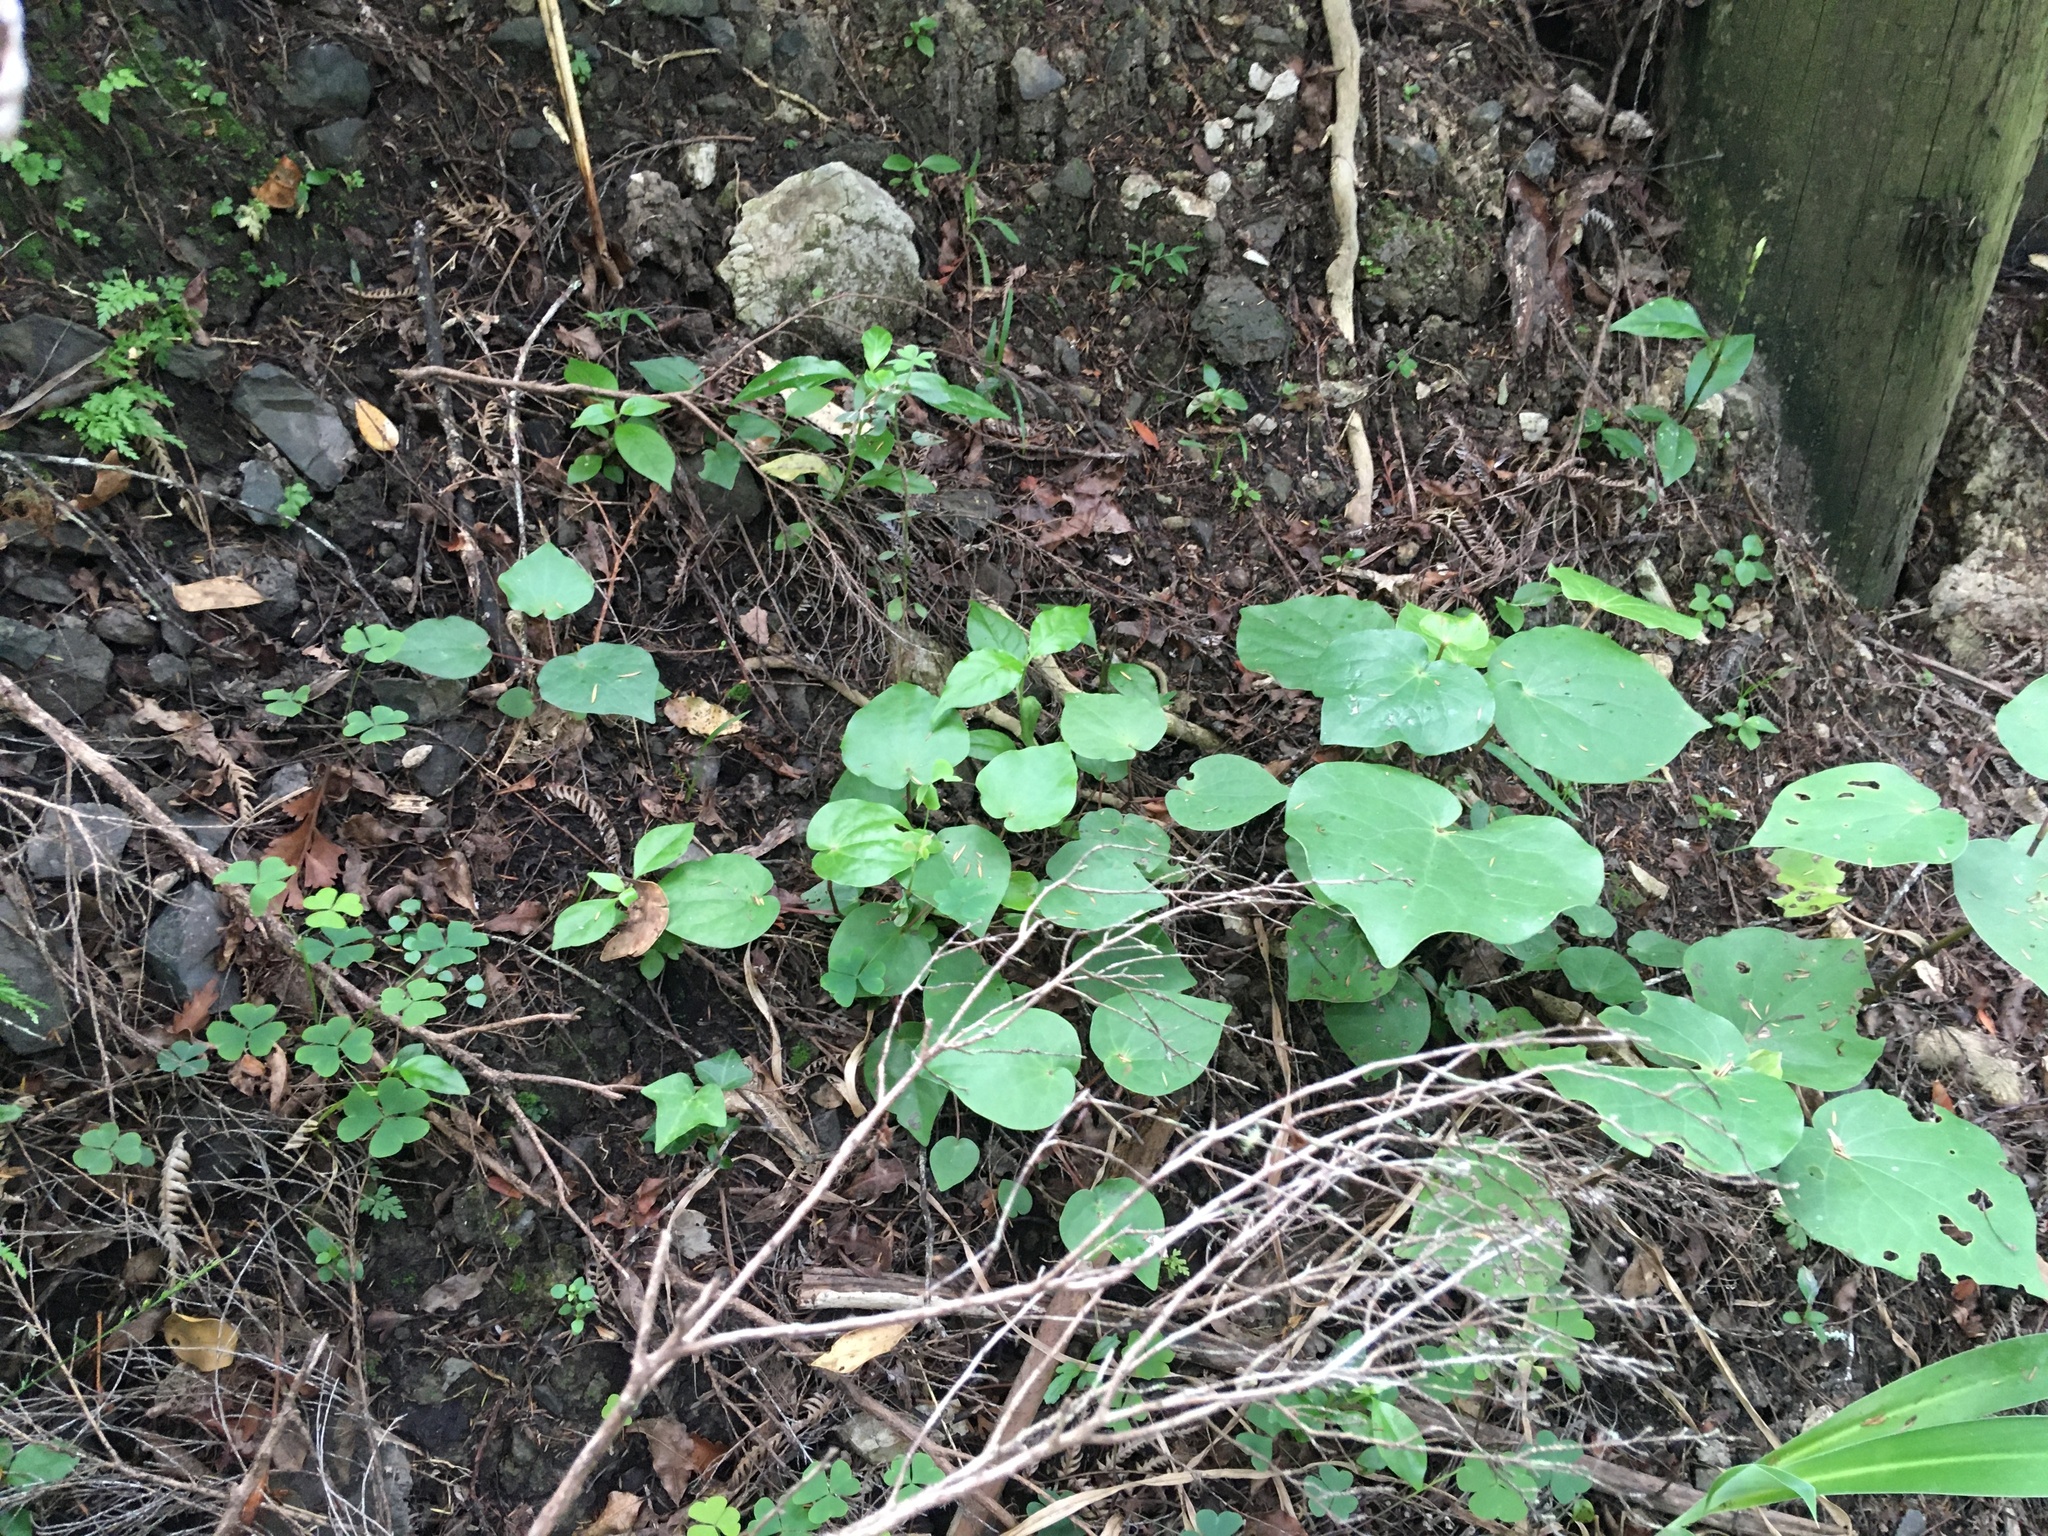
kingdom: Plantae
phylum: Tracheophyta
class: Magnoliopsida
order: Piperales
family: Piperaceae
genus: Macropiper
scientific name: Macropiper excelsum
